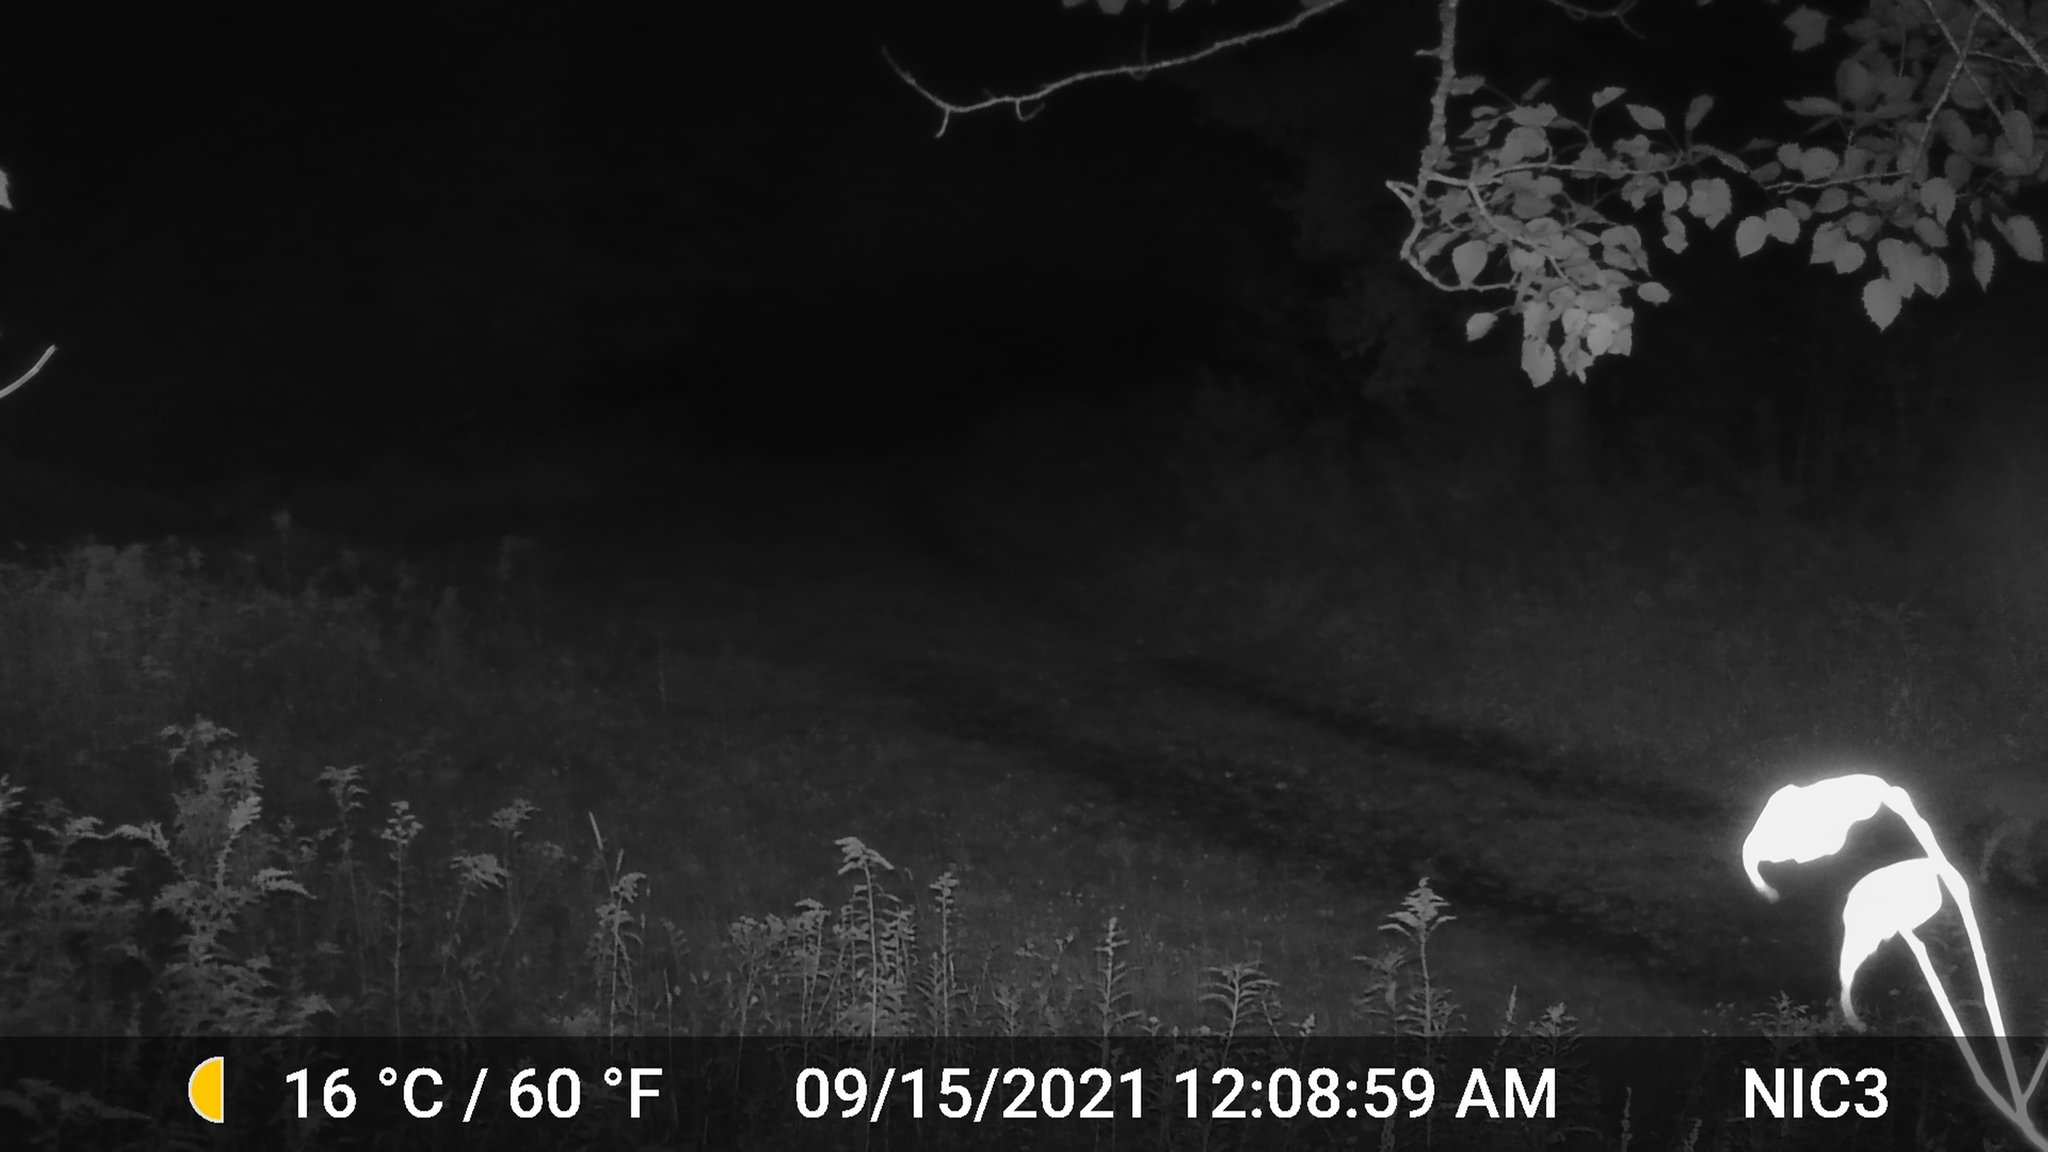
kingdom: Animalia
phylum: Chordata
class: Mammalia
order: Carnivora
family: Canidae
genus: Canis
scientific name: Canis latrans
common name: Coyote
